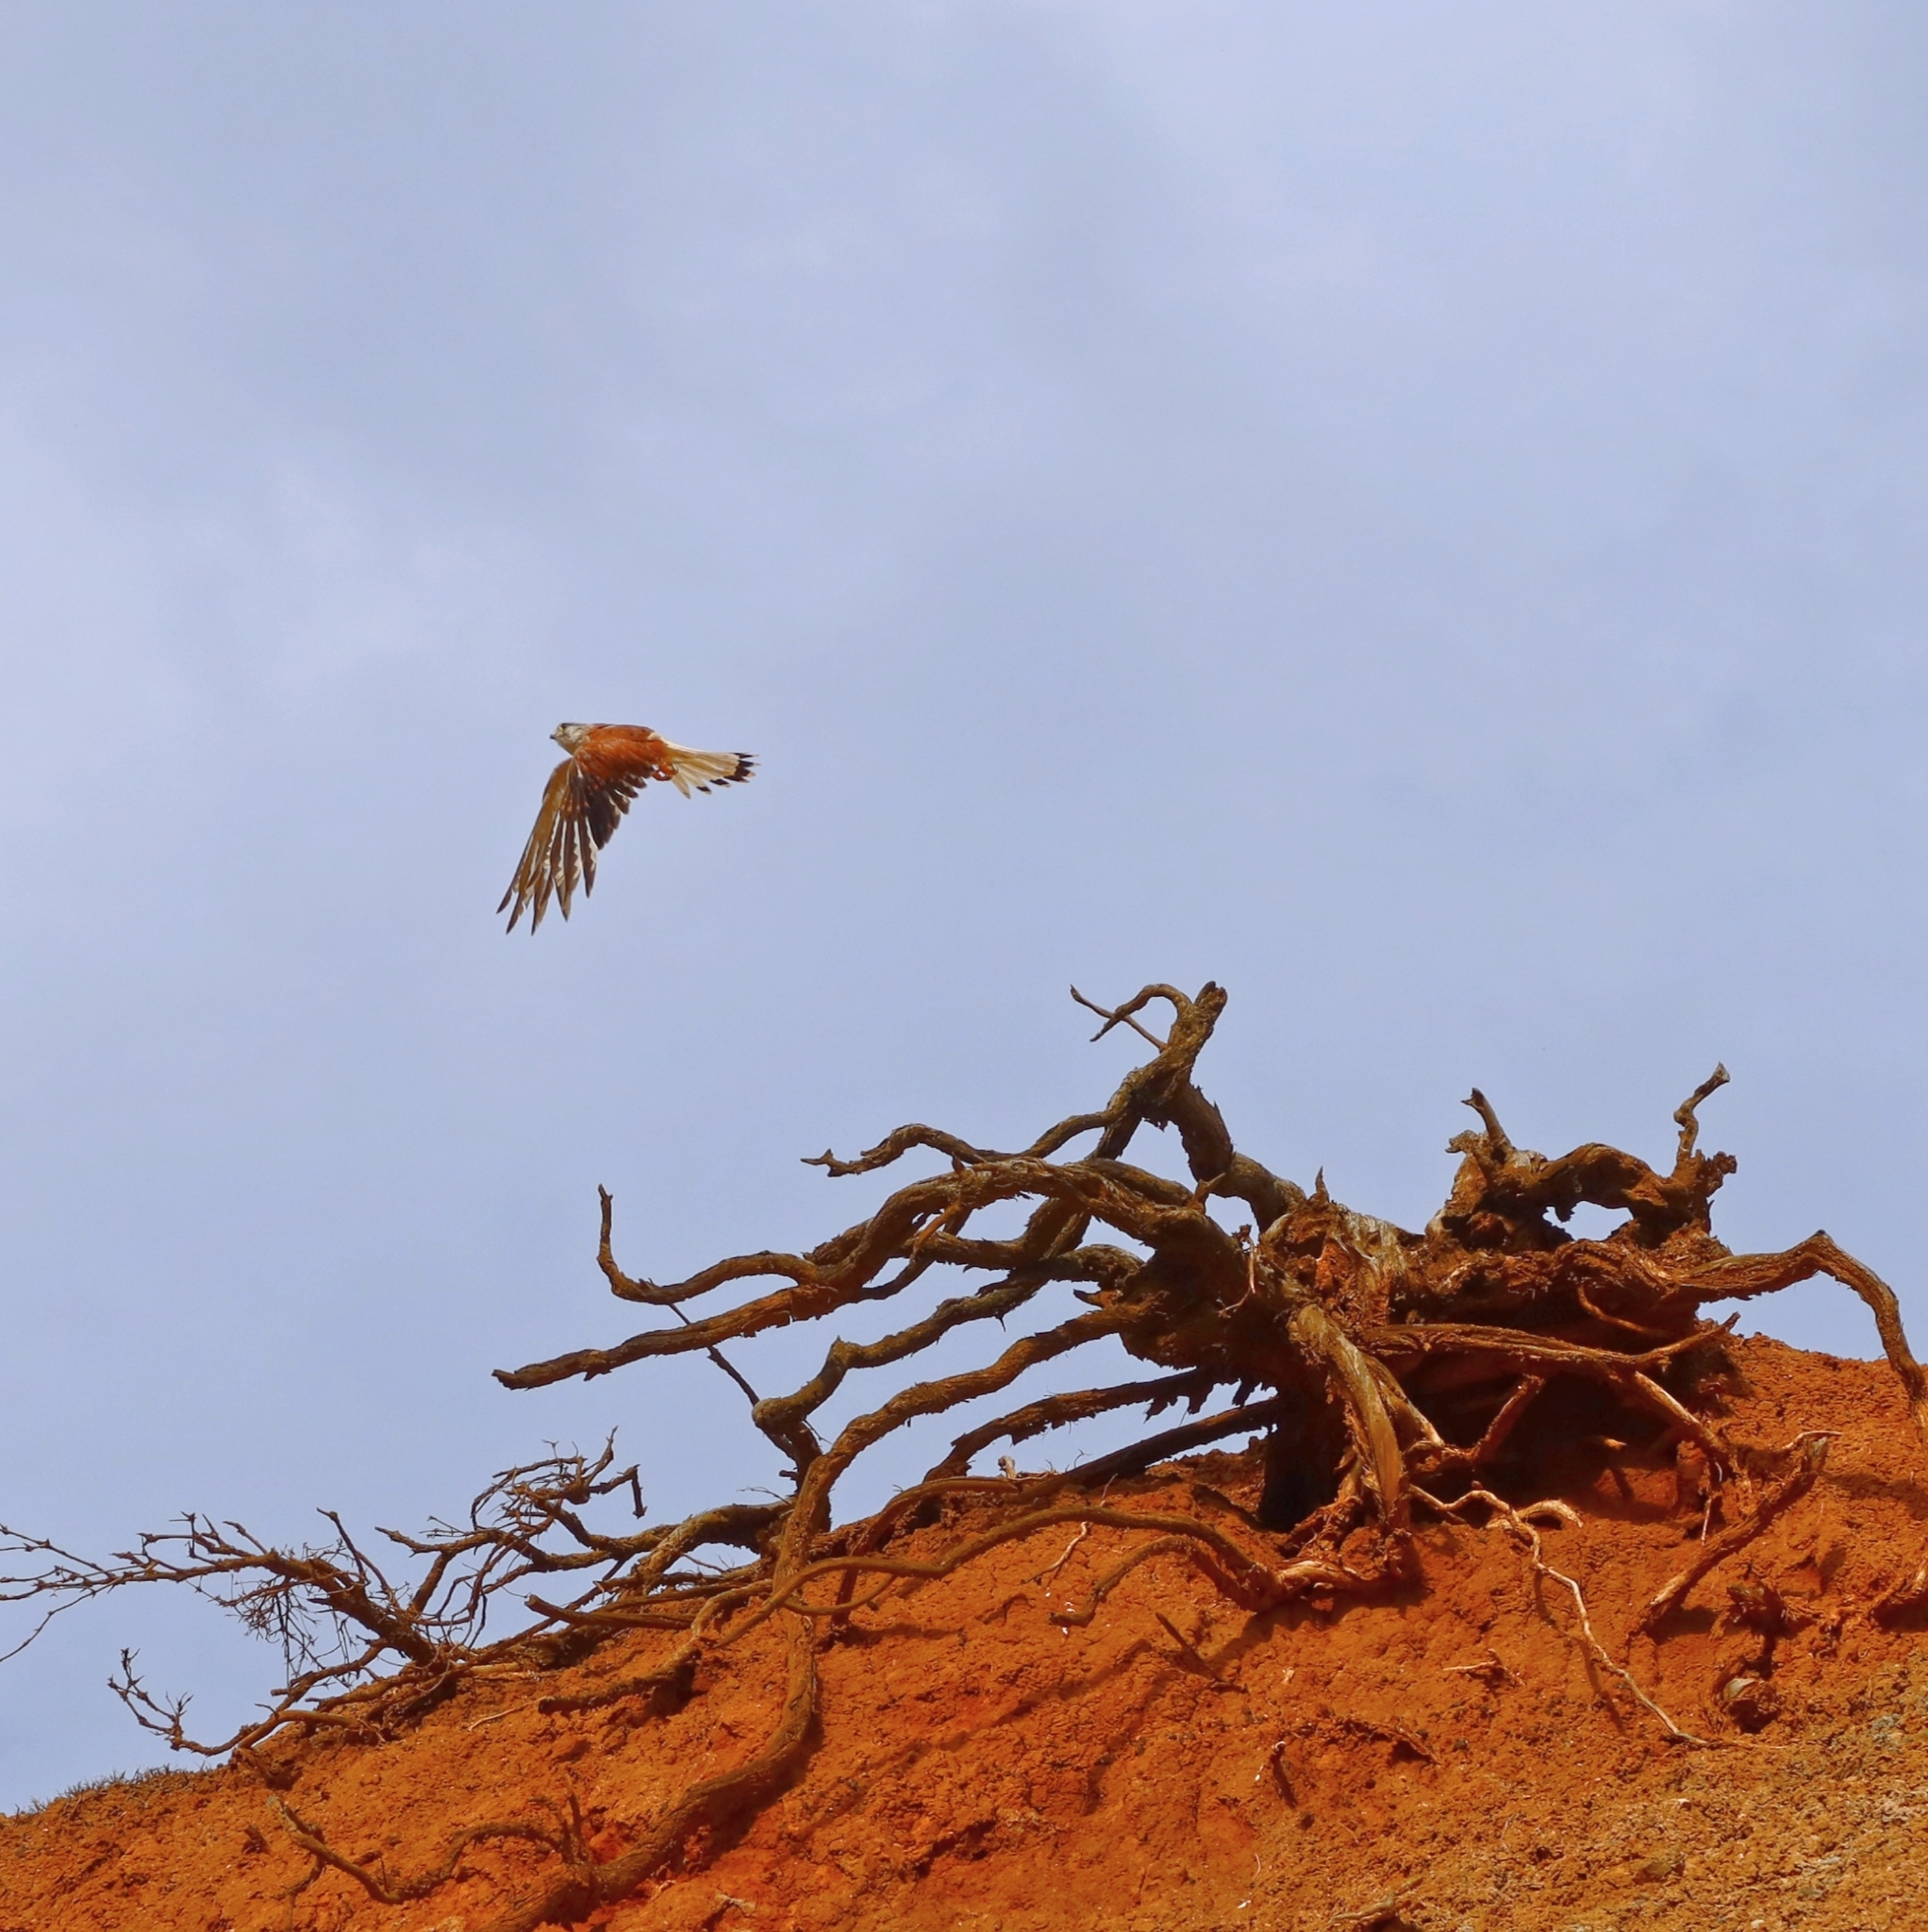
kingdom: Animalia
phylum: Chordata
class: Aves
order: Falconiformes
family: Falconidae
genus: Falco
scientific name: Falco cenchroides
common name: Nankeen kestrel
